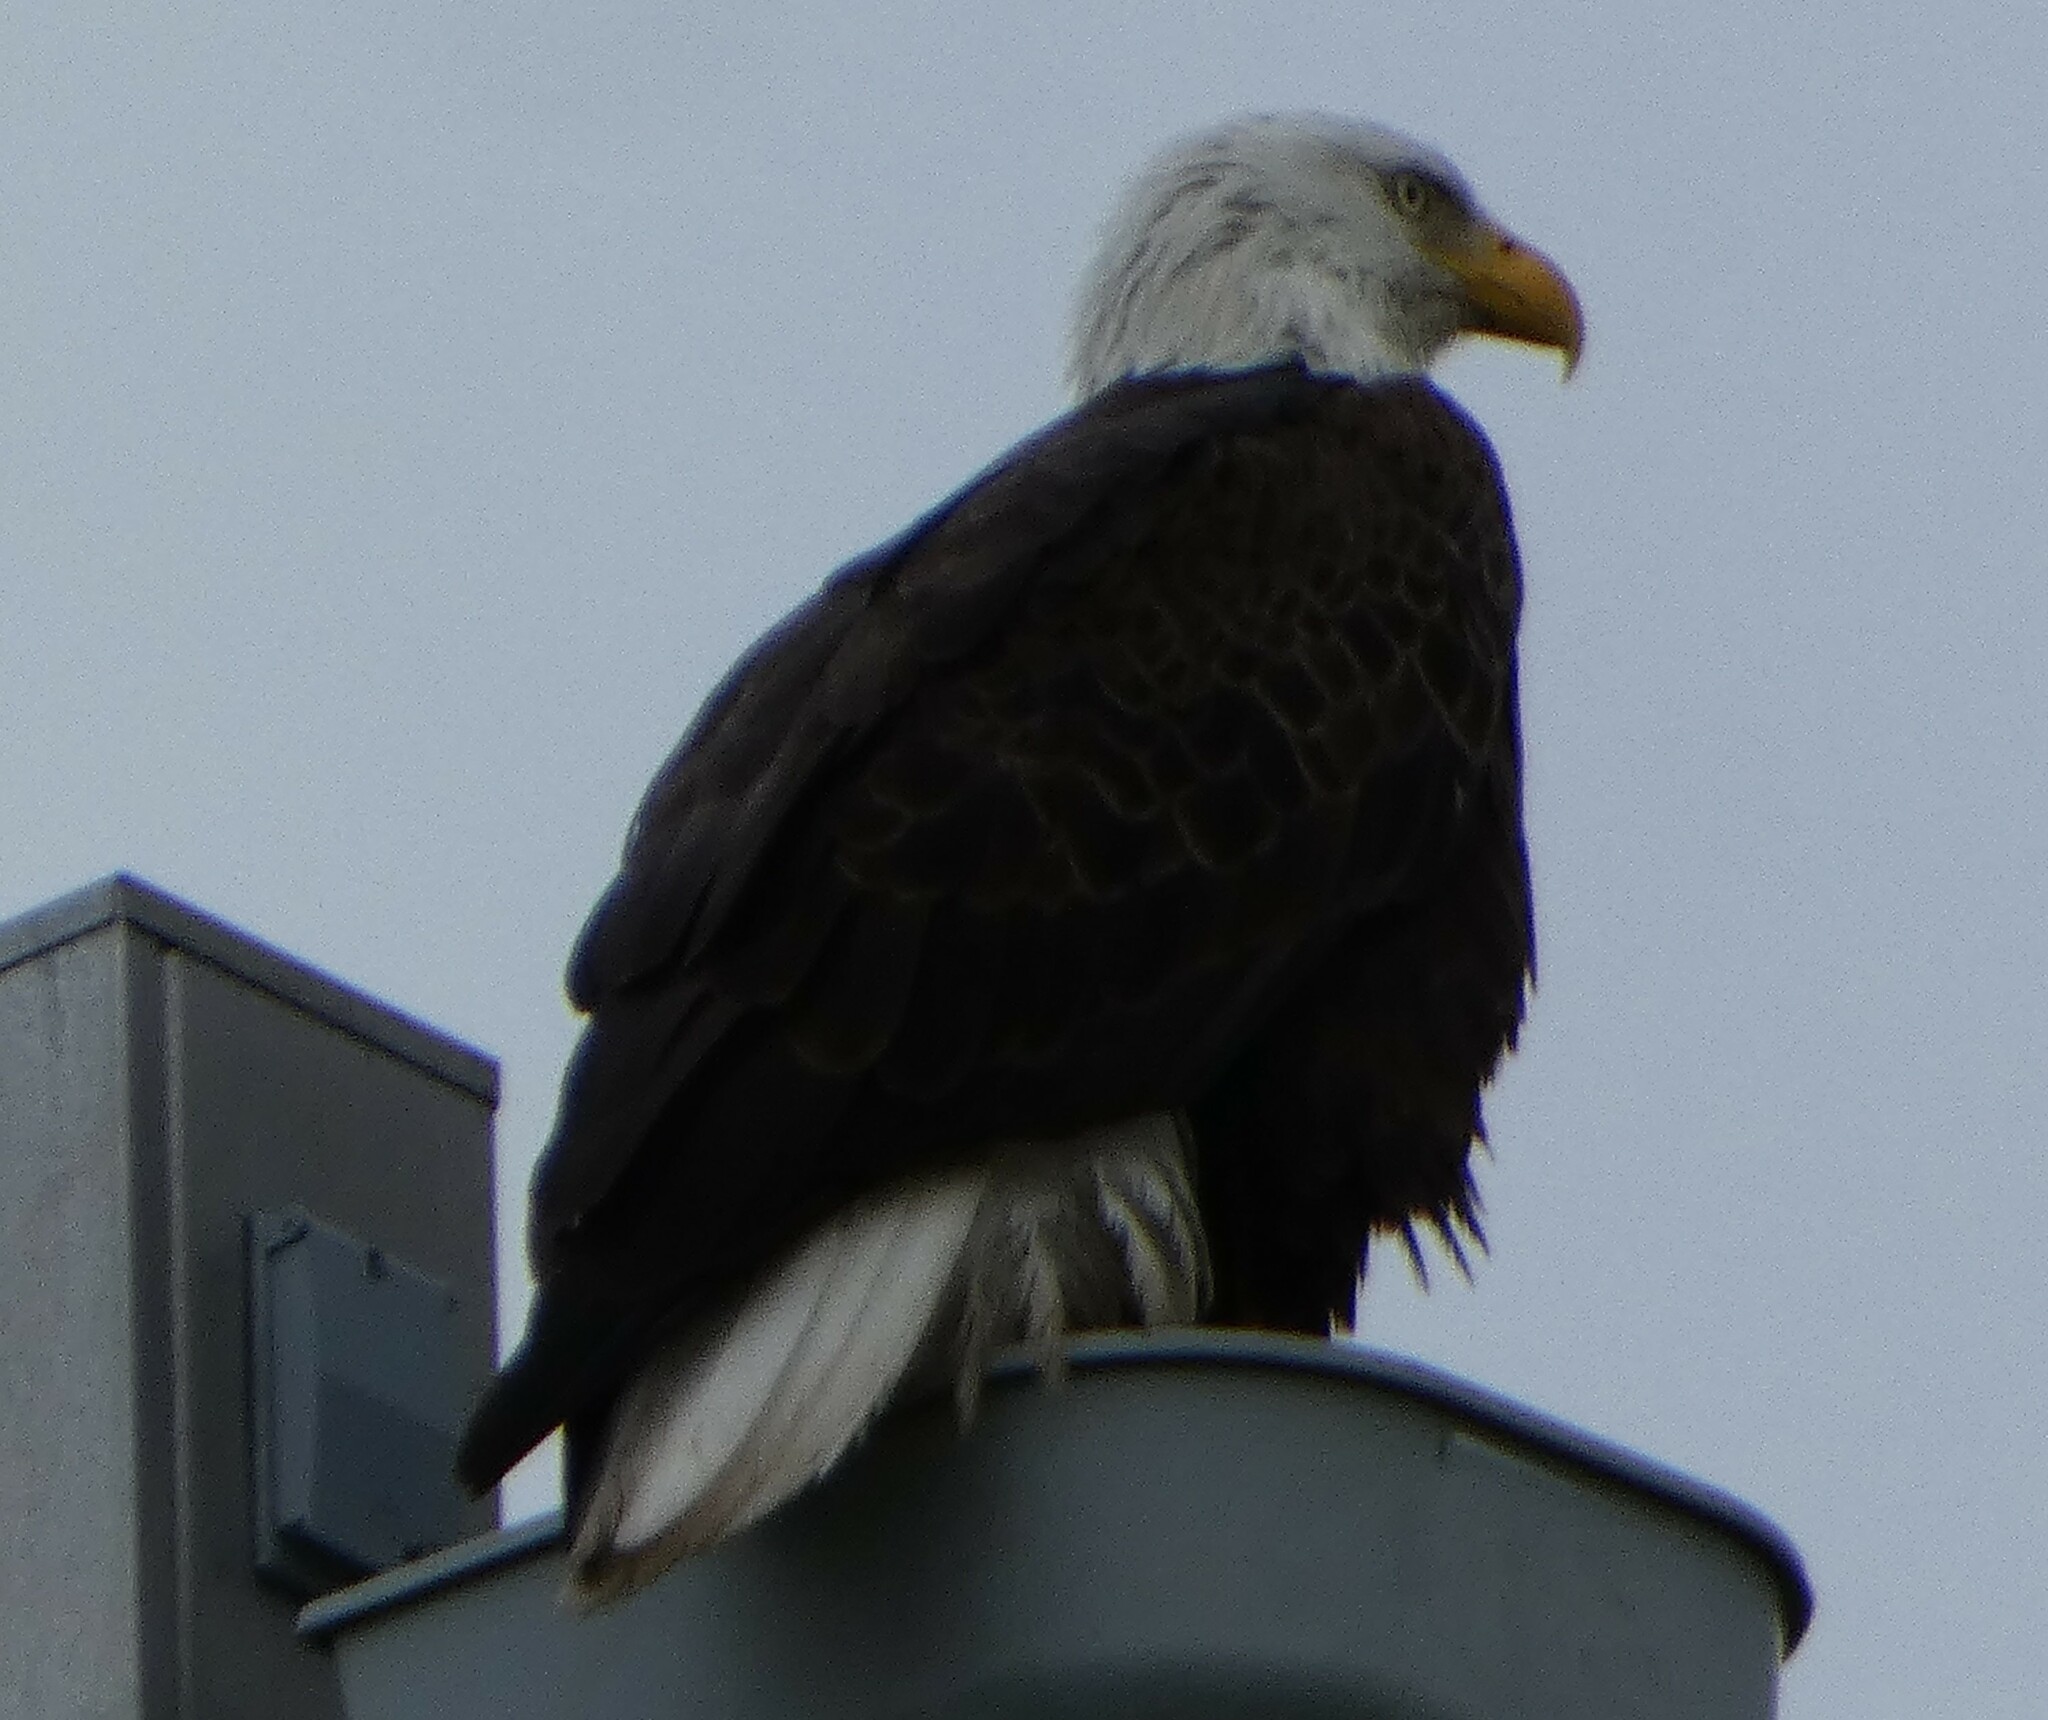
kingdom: Animalia
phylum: Chordata
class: Aves
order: Accipitriformes
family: Accipitridae
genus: Haliaeetus
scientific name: Haliaeetus leucocephalus
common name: Bald eagle
